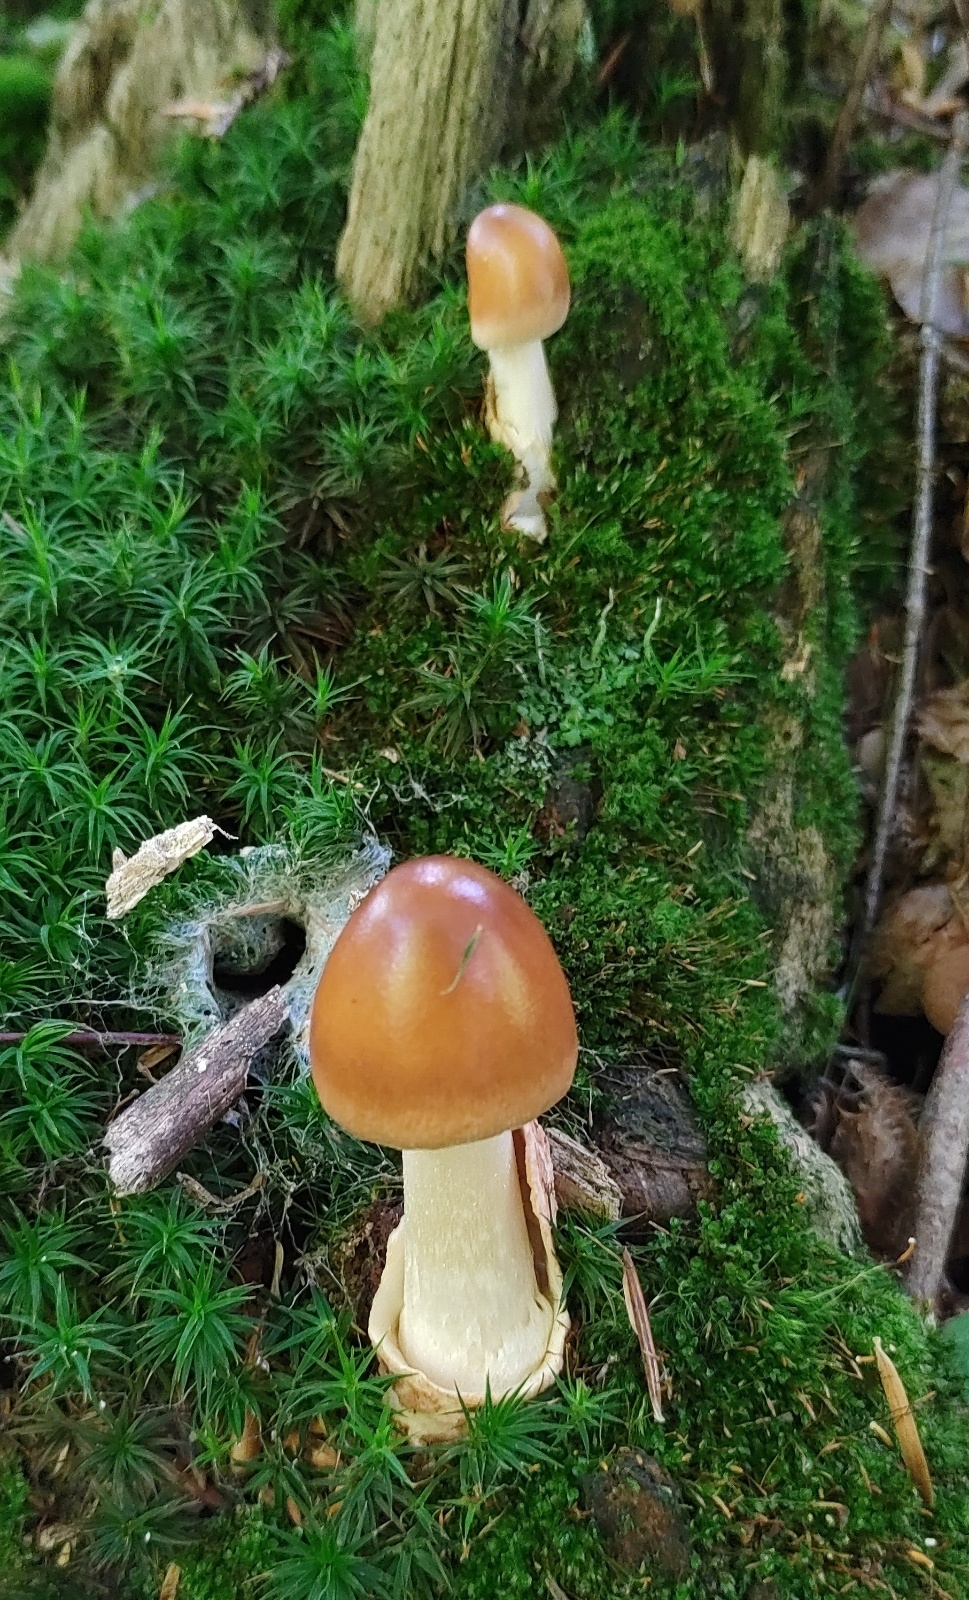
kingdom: Fungi
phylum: Basidiomycota
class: Agaricomycetes
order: Agaricales
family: Amanitaceae
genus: Amanita
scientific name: Amanita fulva
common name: Tawny grisette
